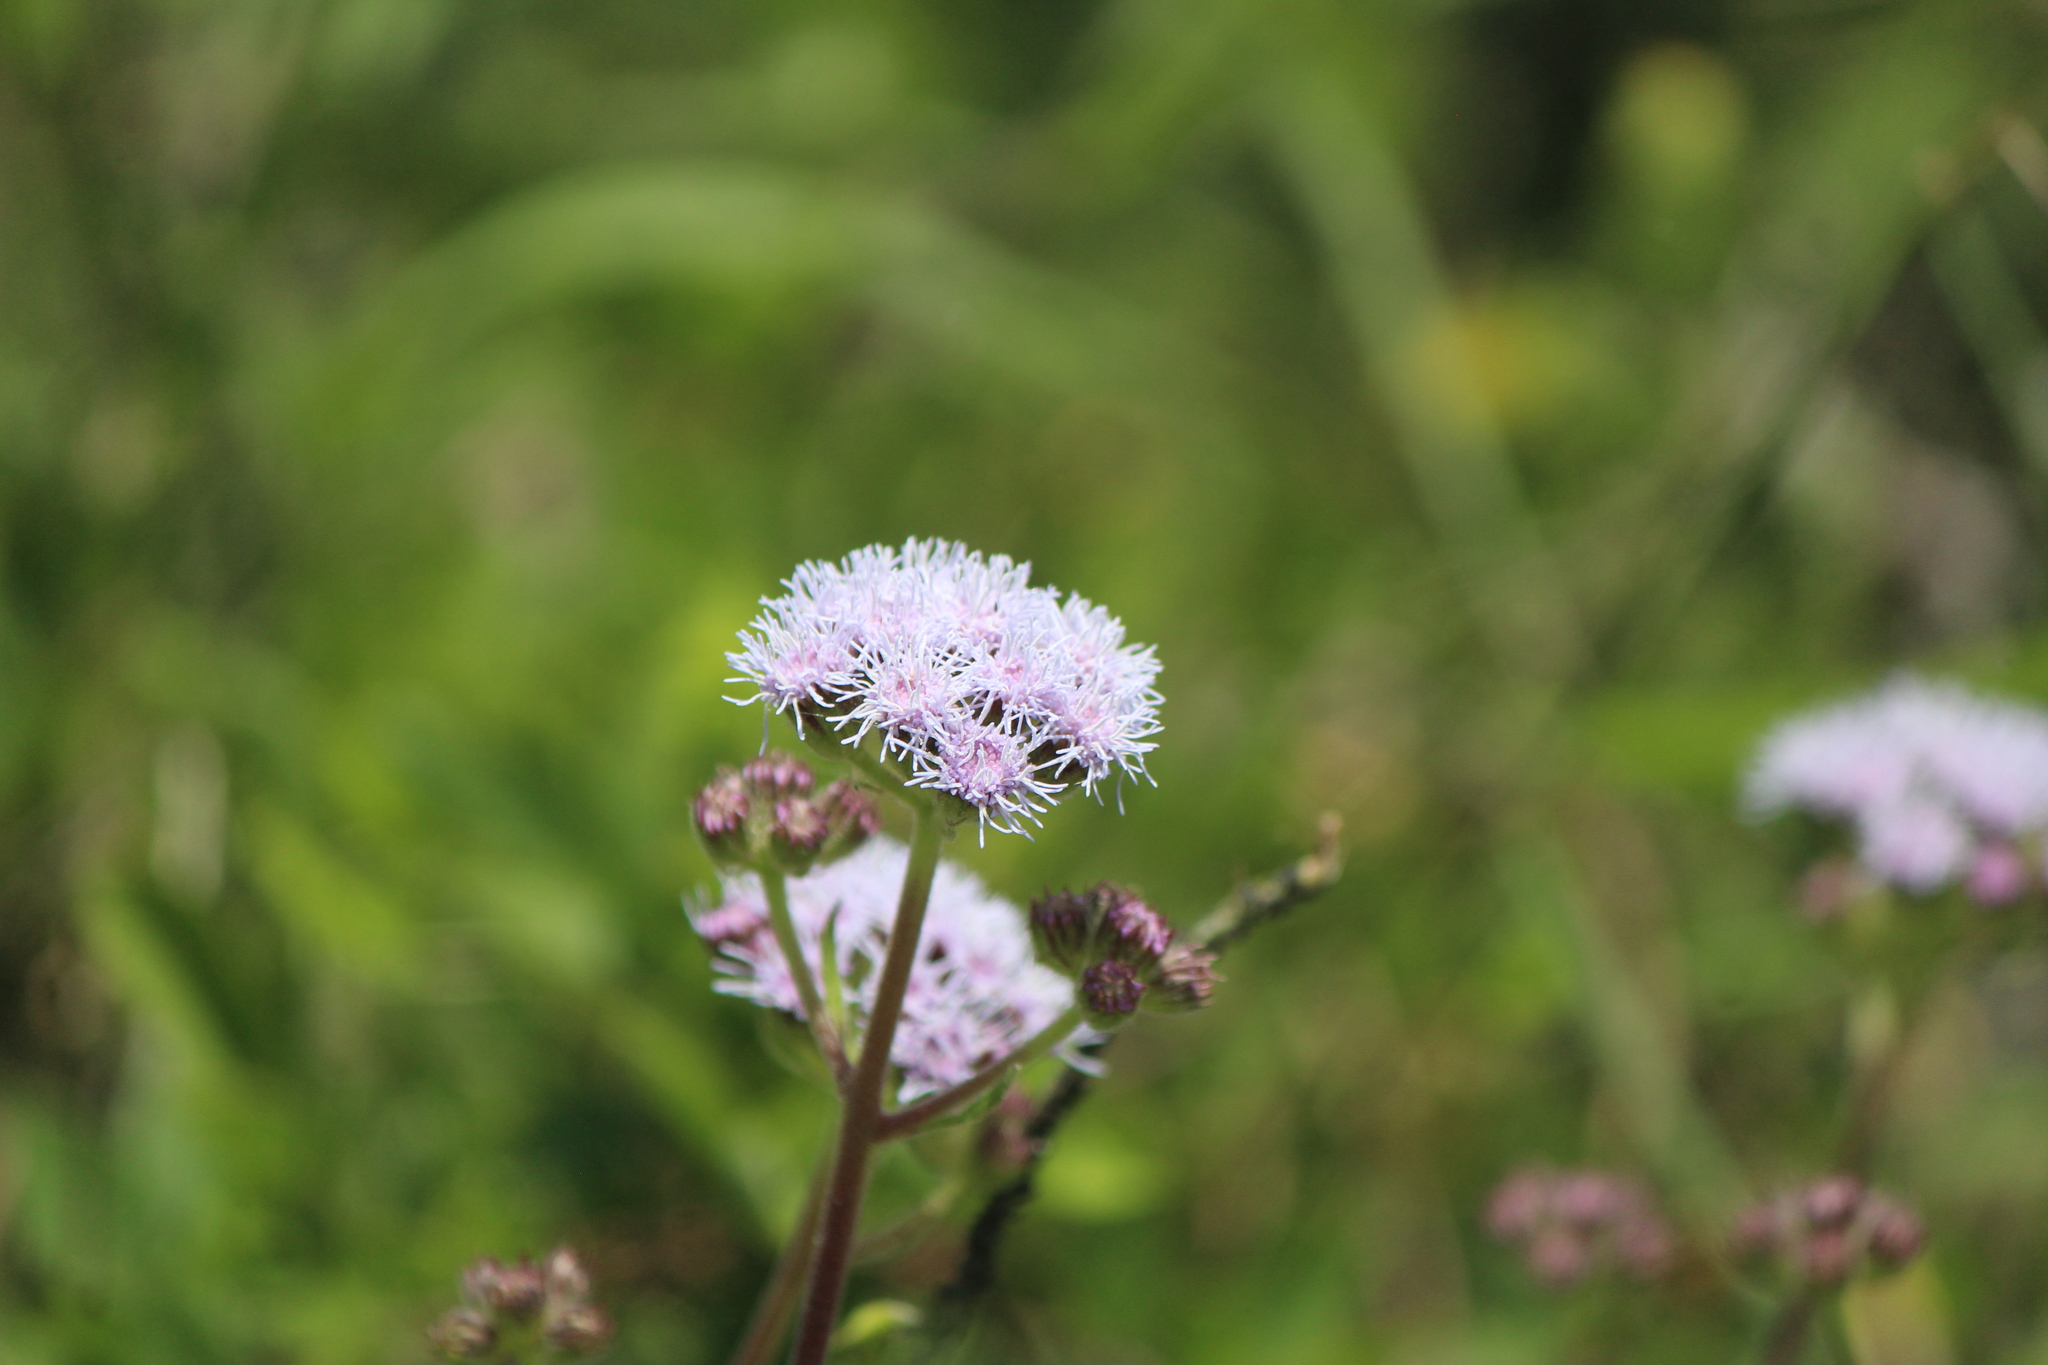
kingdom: Plantae
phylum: Tracheophyta
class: Magnoliopsida
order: Asterales
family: Asteraceae
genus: Ageratum
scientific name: Ageratum corymbosum
